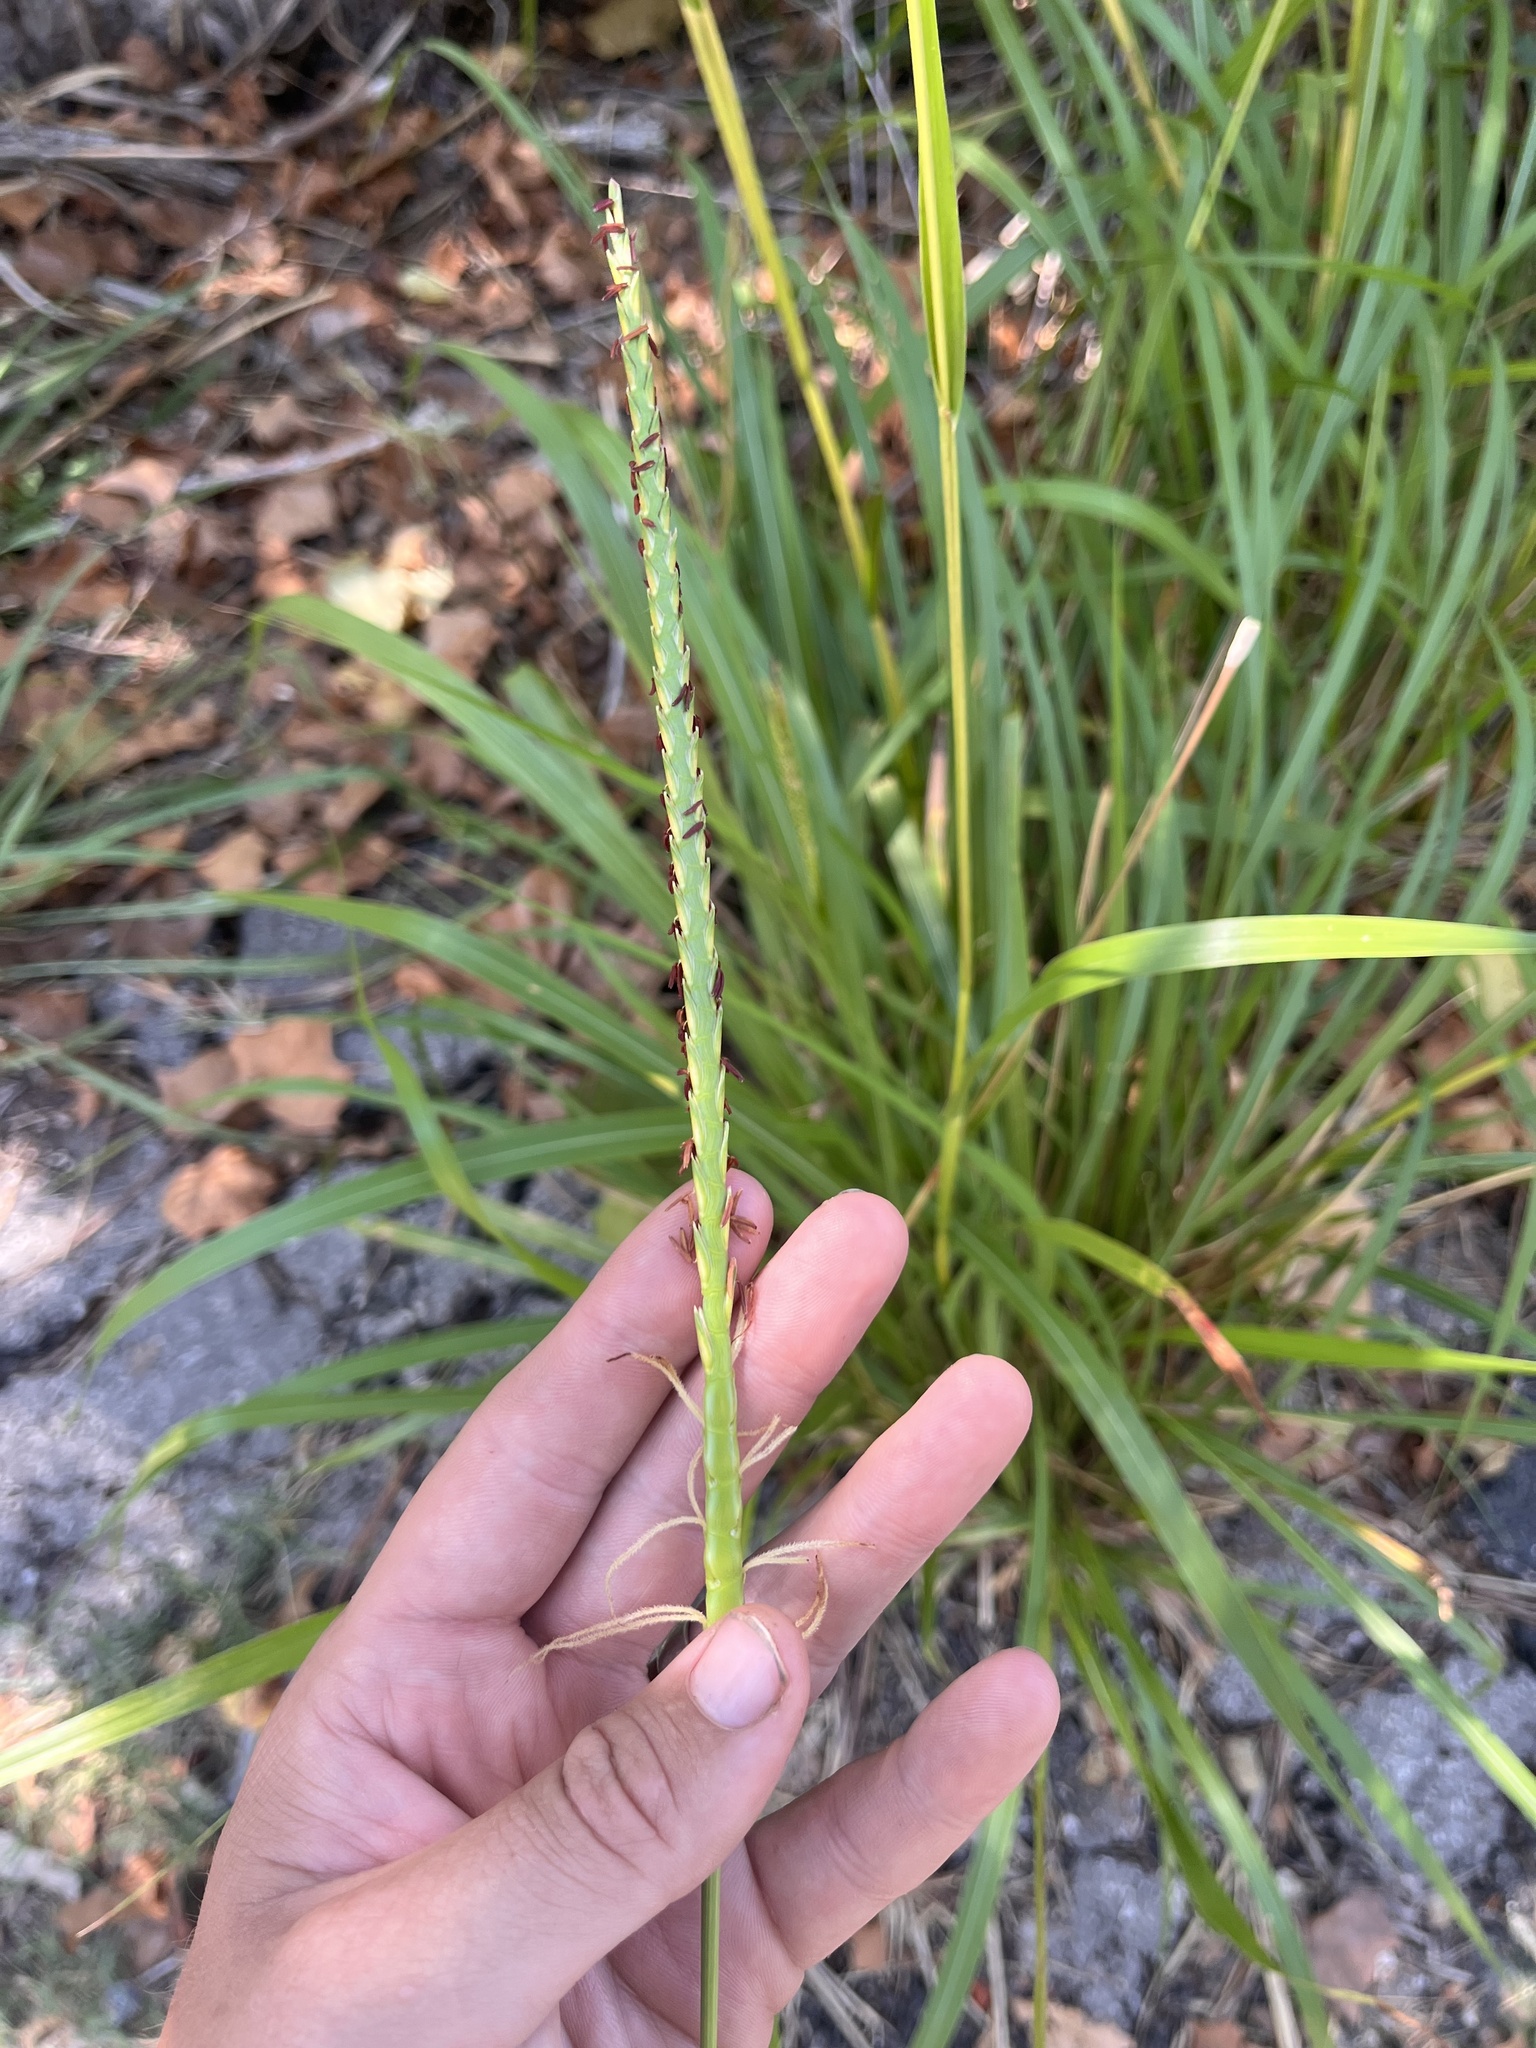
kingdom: Plantae
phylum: Tracheophyta
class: Liliopsida
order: Poales
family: Poaceae
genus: Tripsacum
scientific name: Tripsacum dactyloides
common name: Buffalo-grass
